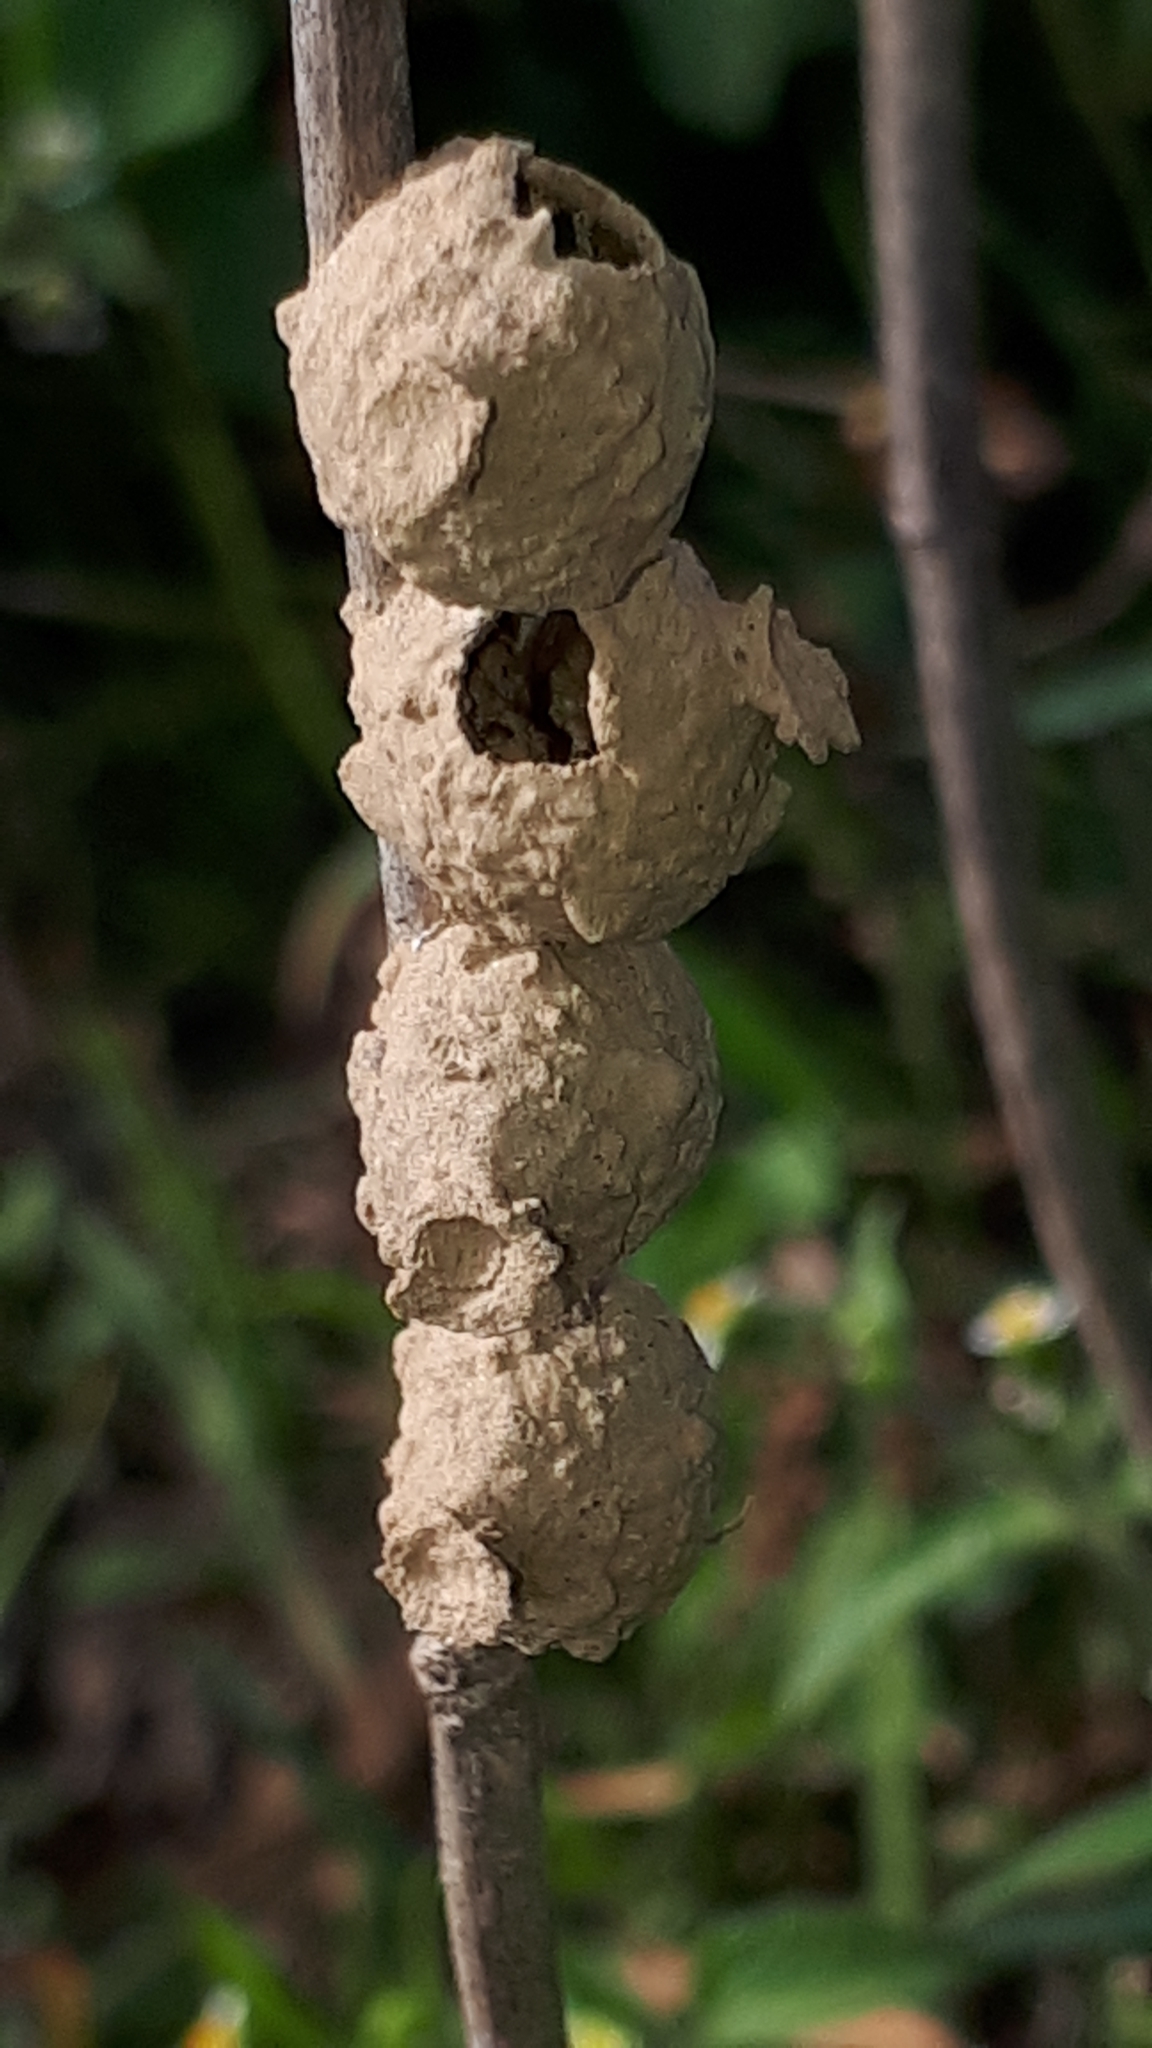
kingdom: Animalia
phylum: Arthropoda
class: Insecta
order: Hymenoptera
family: Vespidae
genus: Eumenes
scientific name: Eumenes
